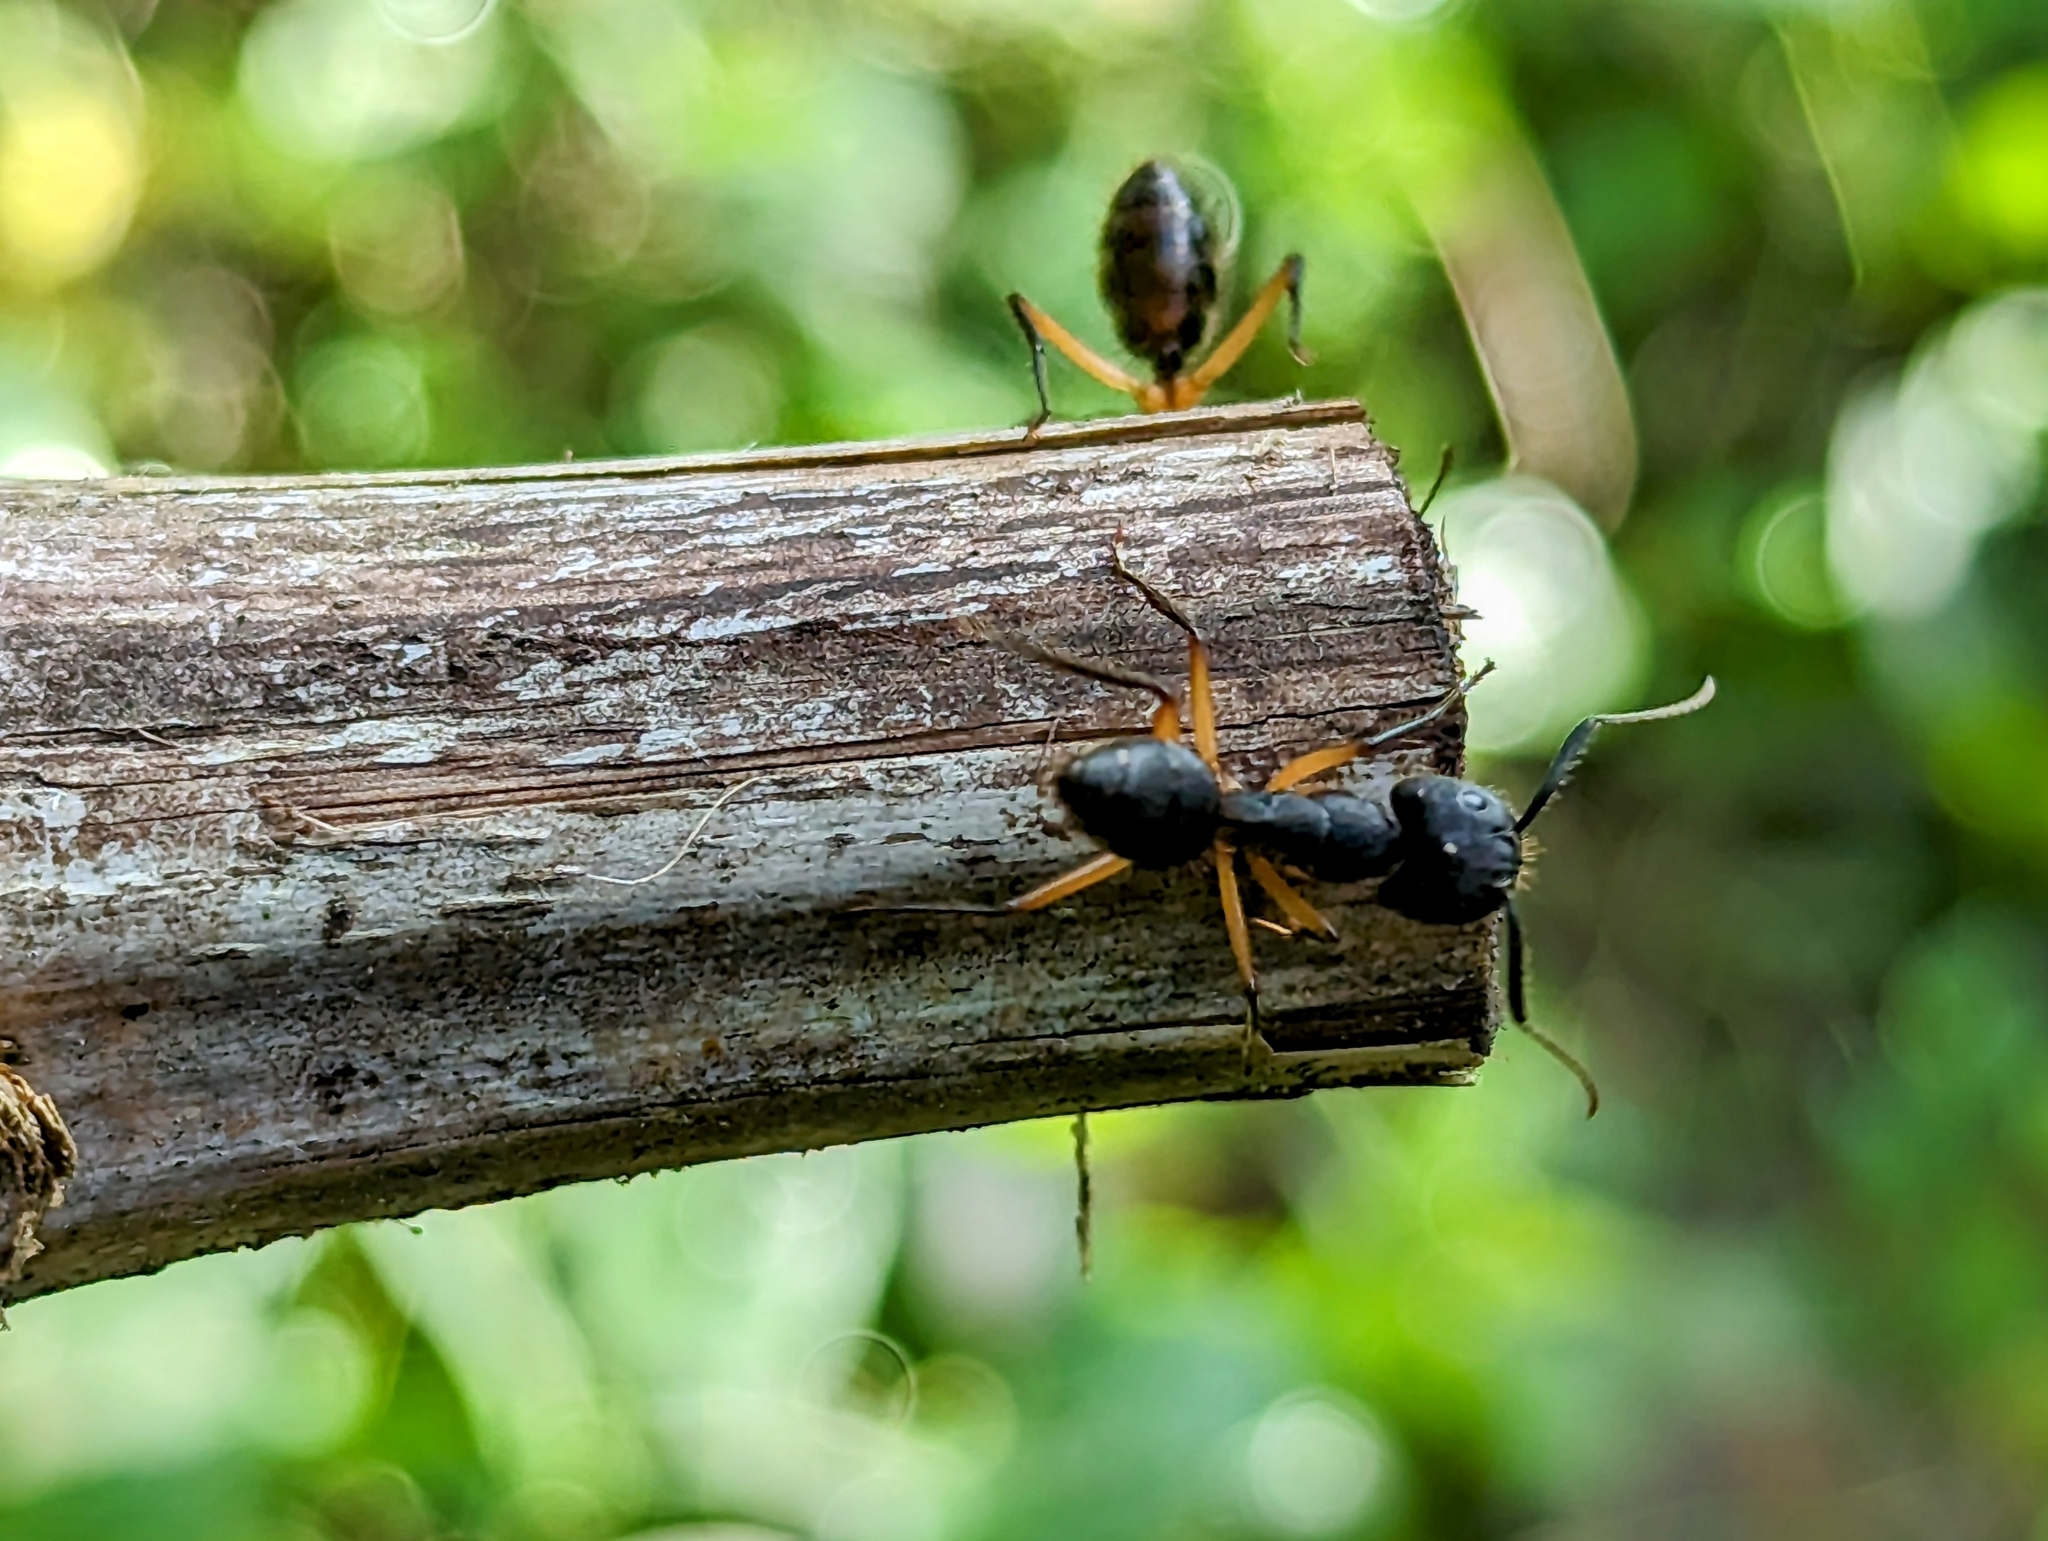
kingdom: Animalia
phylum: Arthropoda
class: Insecta
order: Hymenoptera
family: Formicidae
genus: Camponotus
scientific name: Camponotus renggeri
